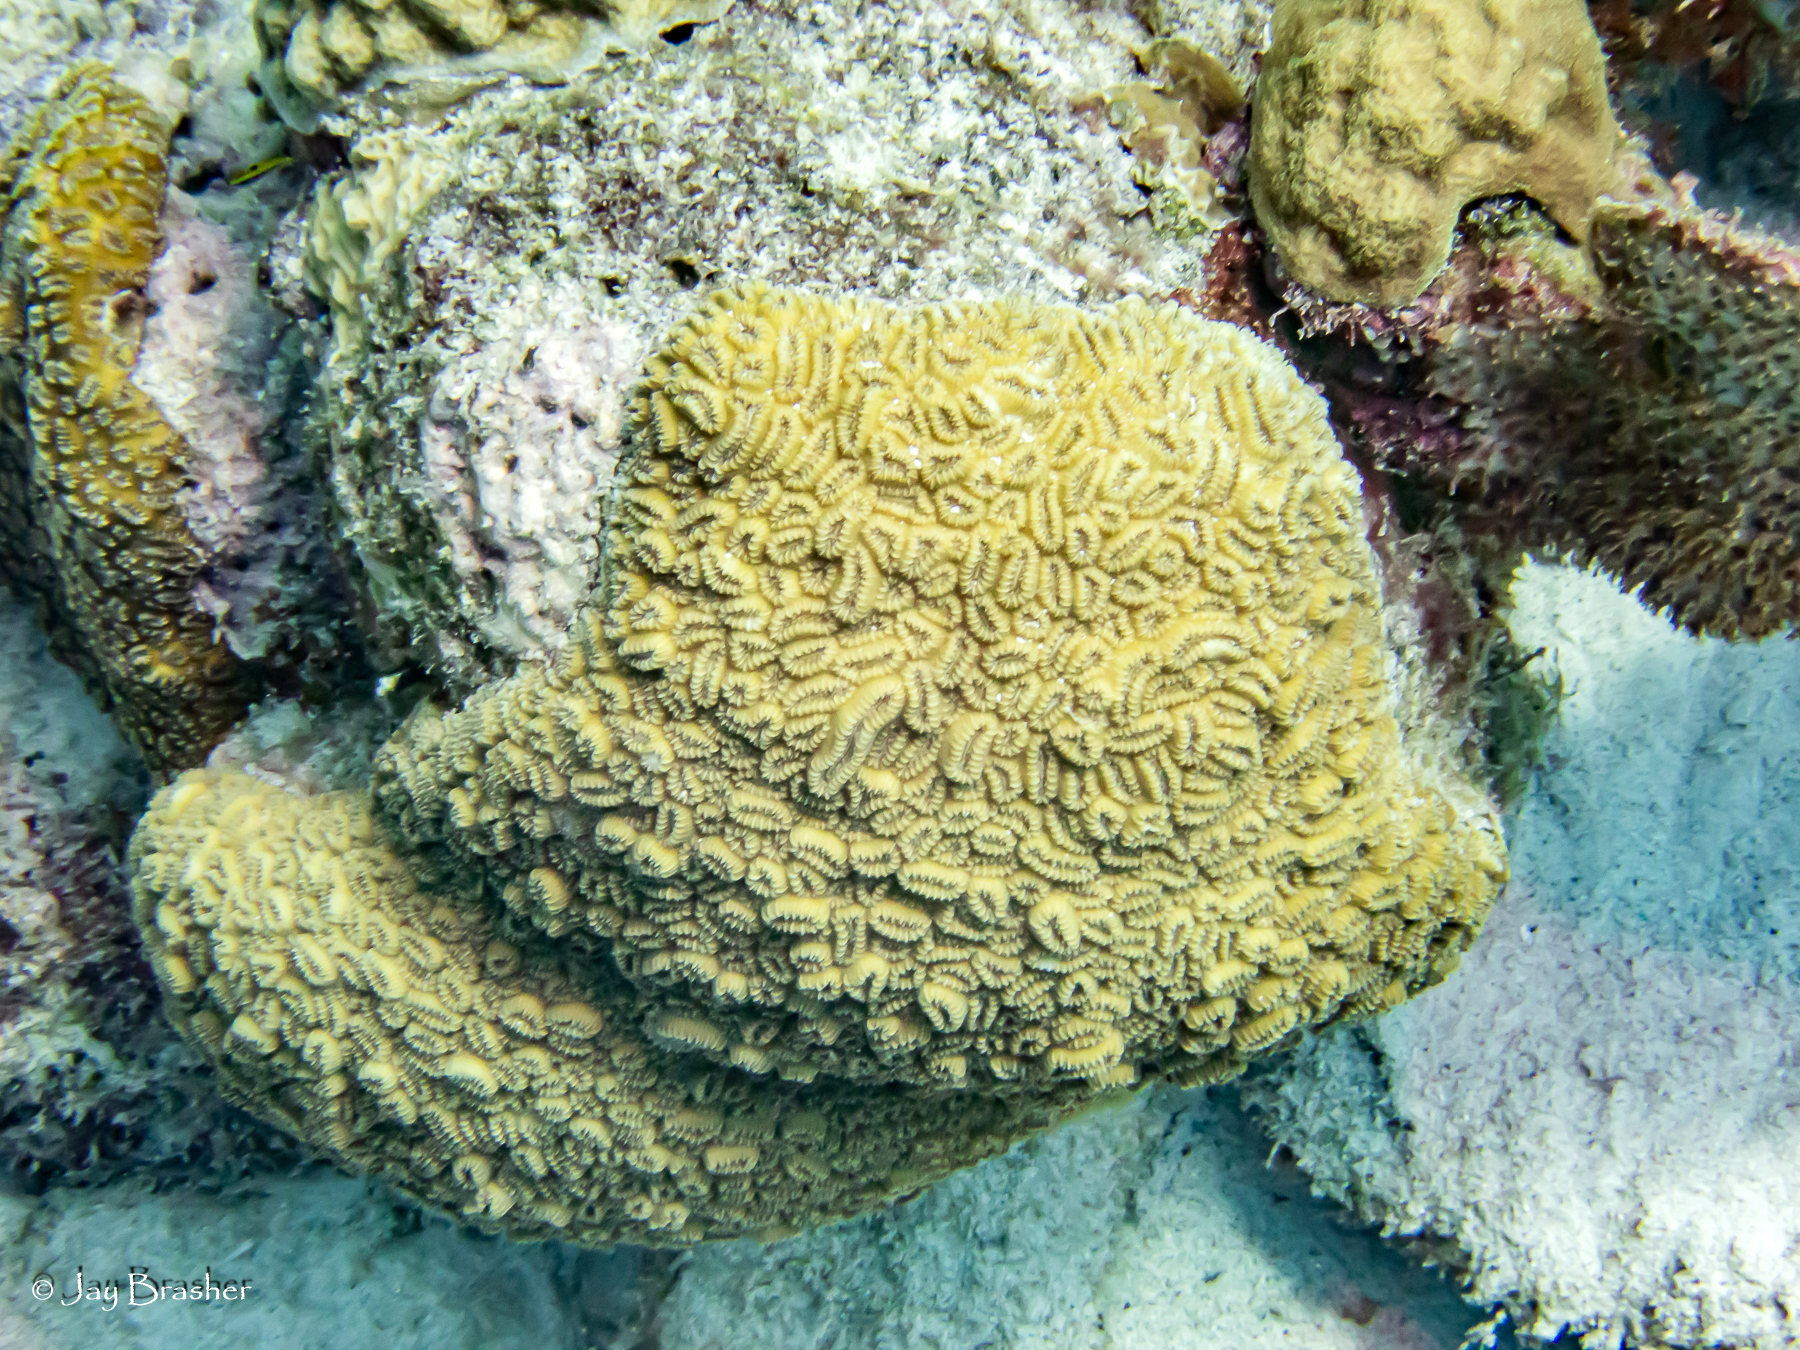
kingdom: Animalia
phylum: Cnidaria
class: Anthozoa
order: Scleractinia
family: Meandrinidae
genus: Dichocoenia
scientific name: Dichocoenia stokesii
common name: Pineapple coral
